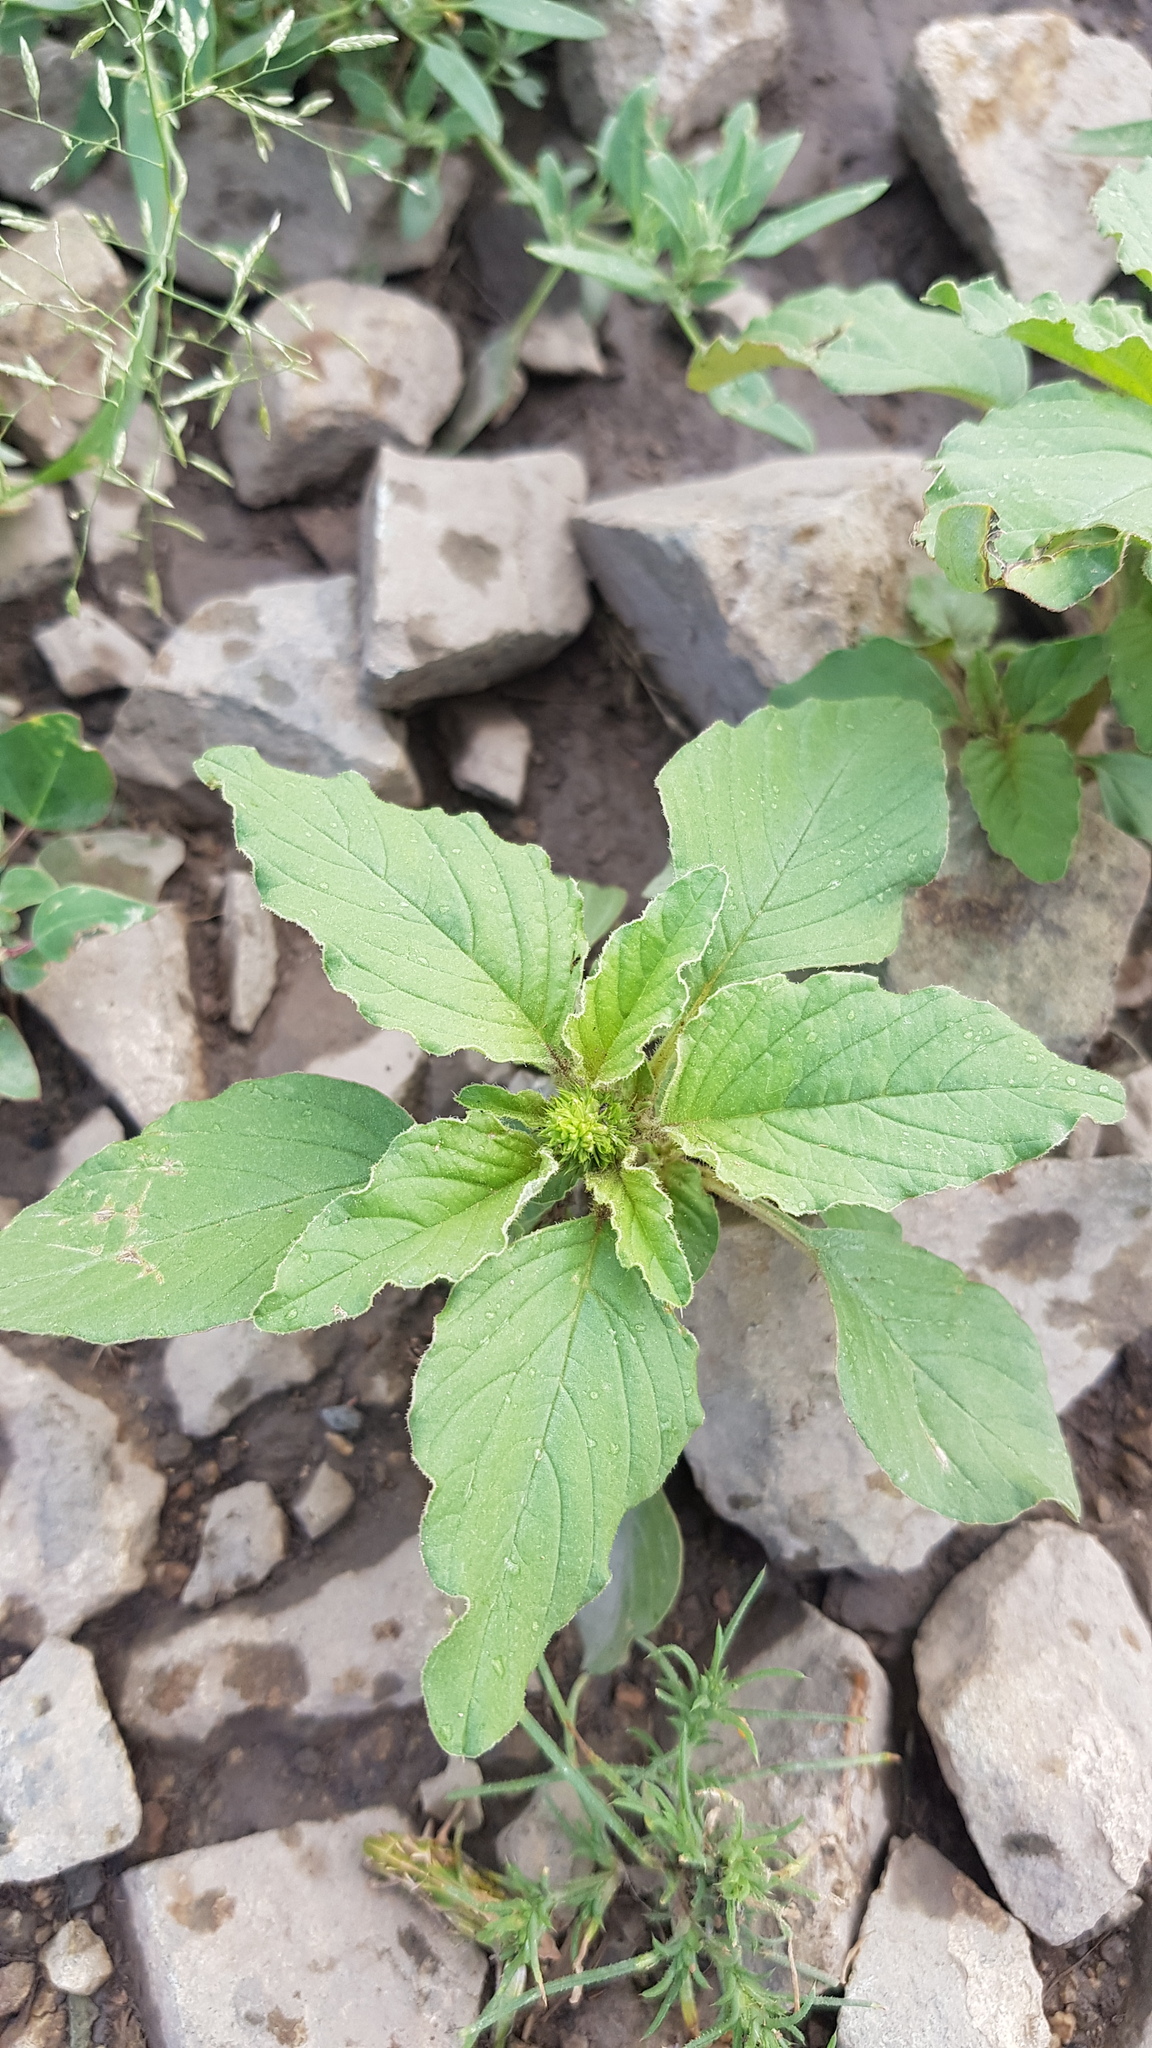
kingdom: Plantae
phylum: Tracheophyta
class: Magnoliopsida
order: Caryophyllales
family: Amaranthaceae
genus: Amaranthus
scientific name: Amaranthus retroflexus
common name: Redroot amaranth
